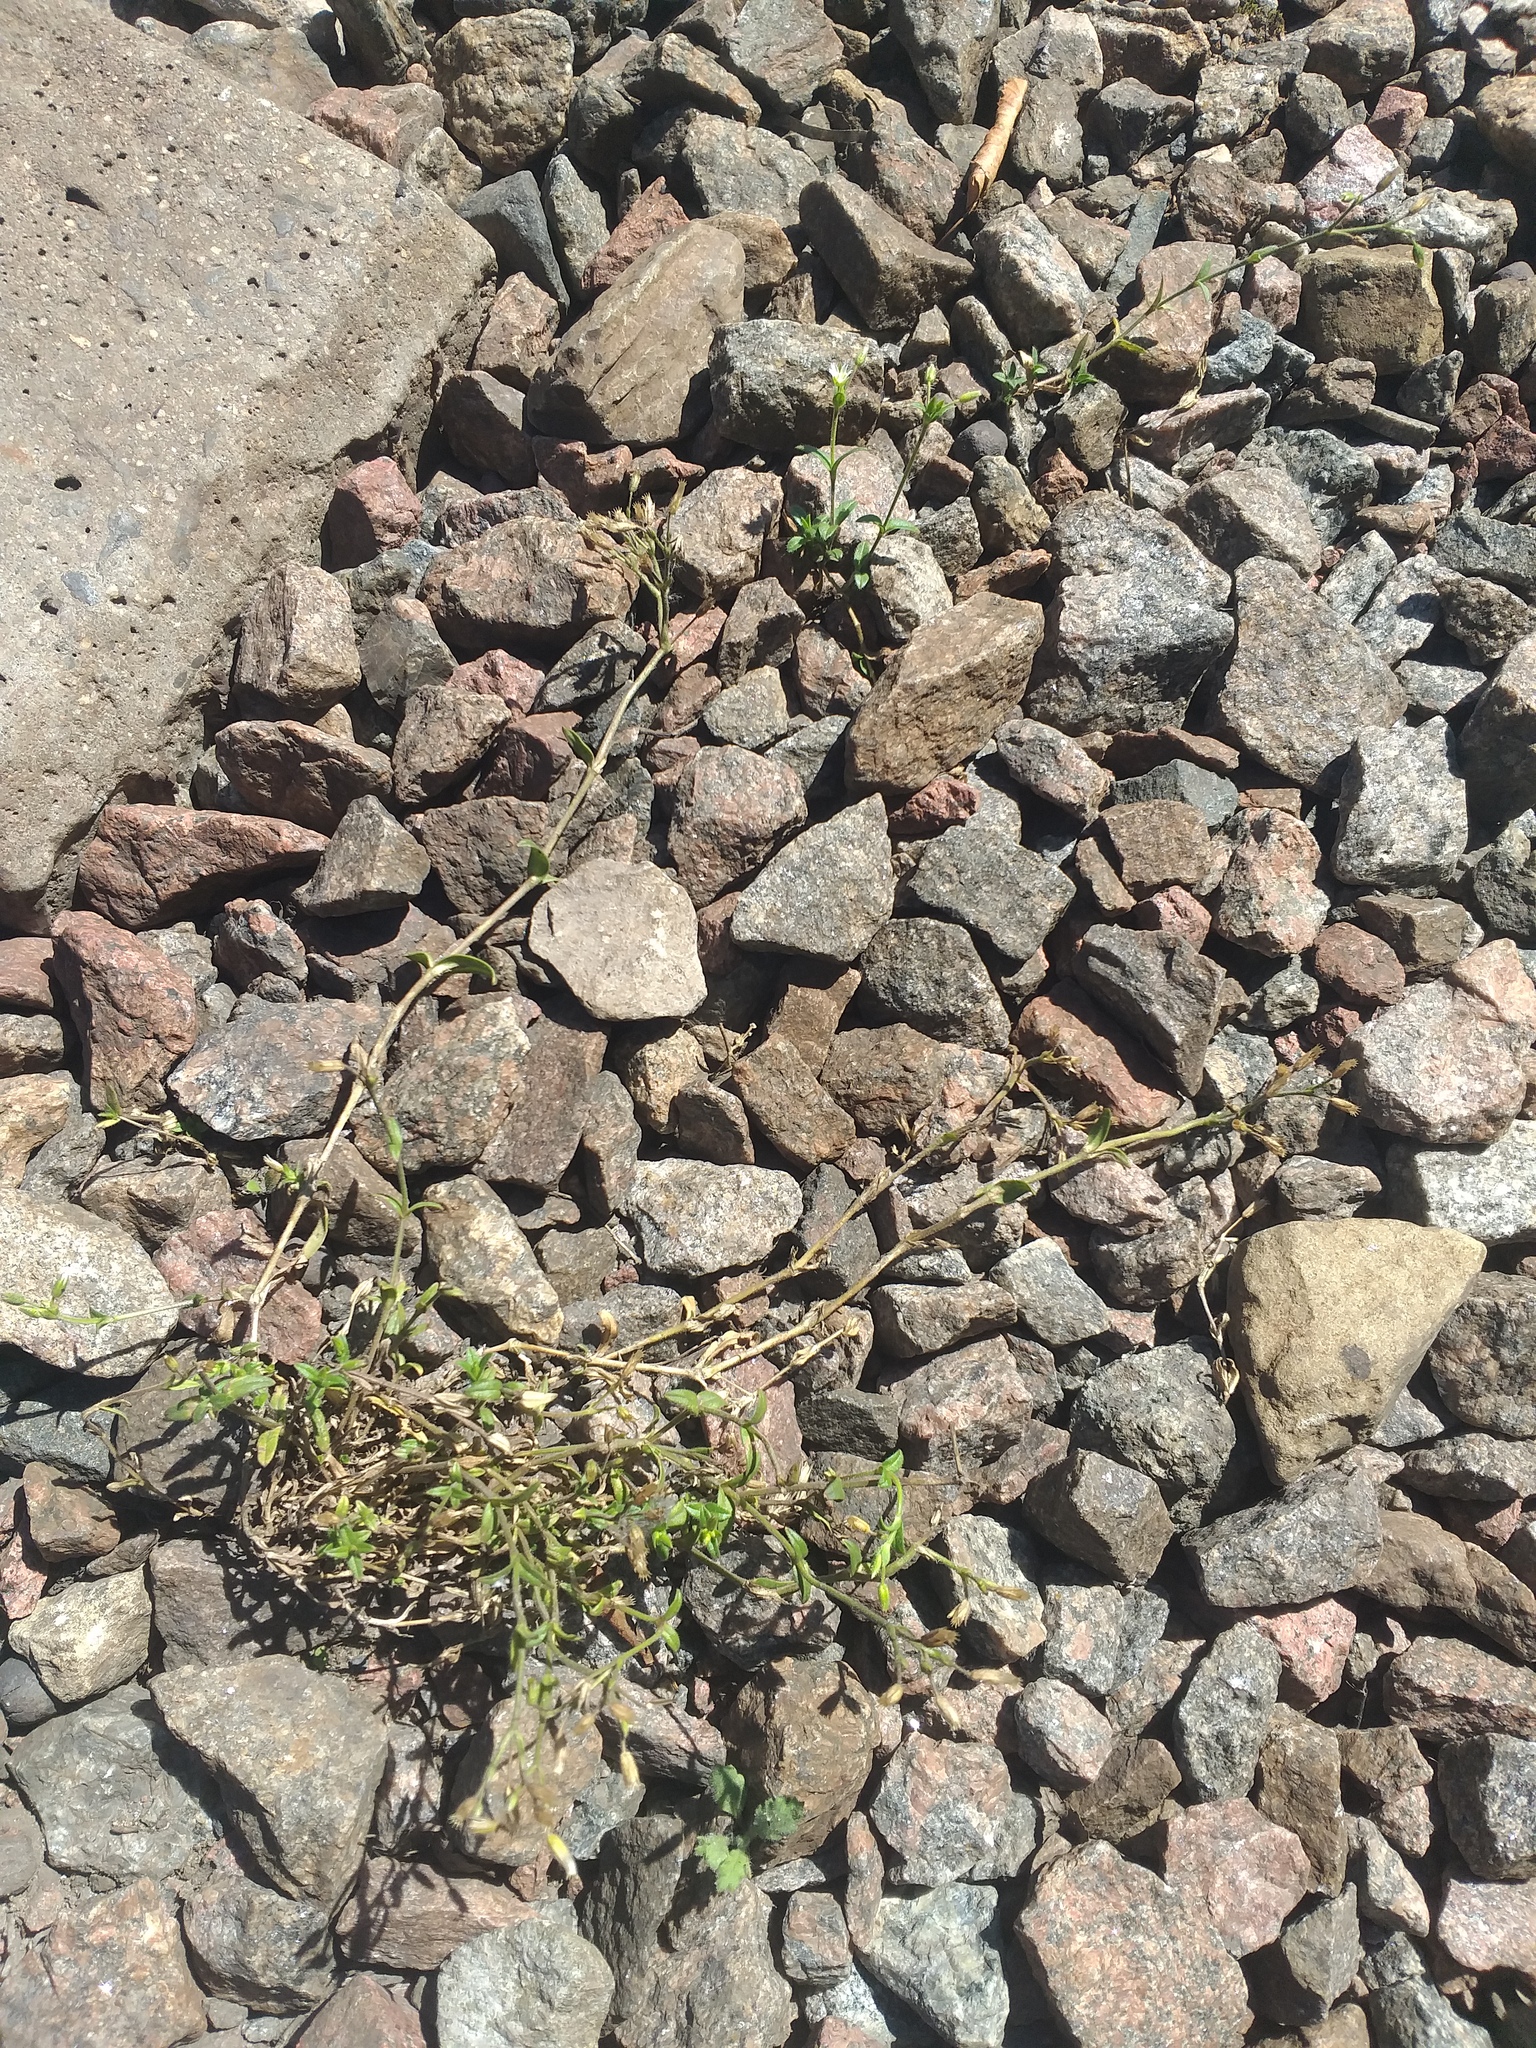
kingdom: Plantae
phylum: Tracheophyta
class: Magnoliopsida
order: Caryophyllales
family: Caryophyllaceae
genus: Cerastium
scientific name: Cerastium holosteoides
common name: Big chickweed
